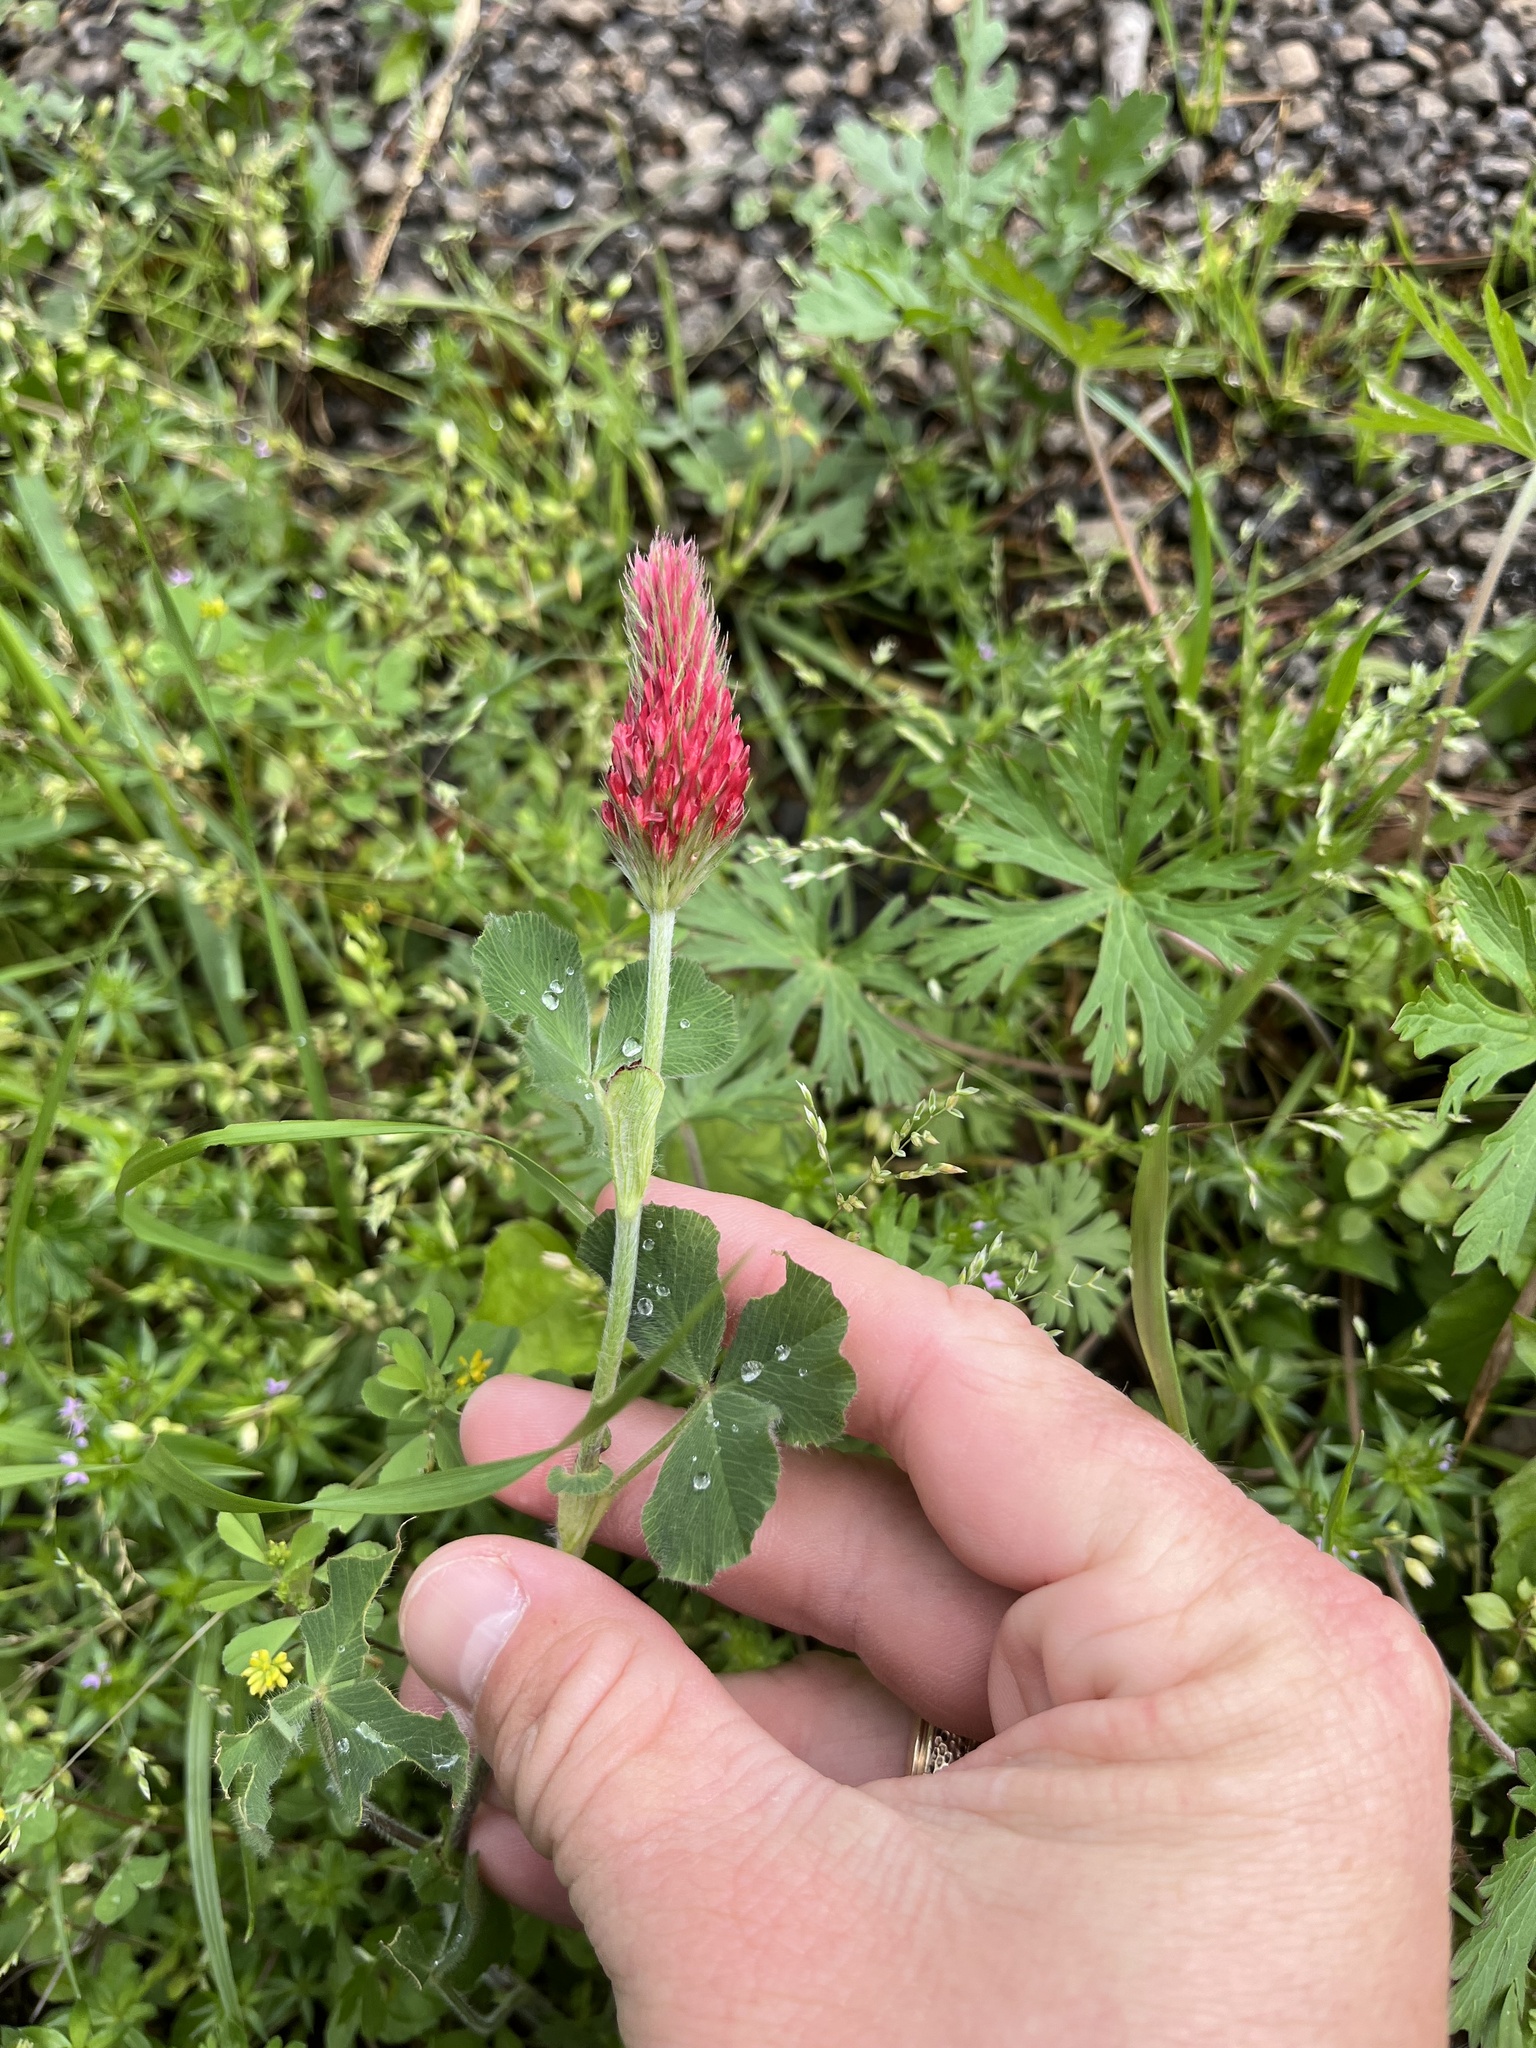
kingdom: Plantae
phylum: Tracheophyta
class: Magnoliopsida
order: Fabales
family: Fabaceae
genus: Trifolium
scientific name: Trifolium incarnatum
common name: Crimson clover
